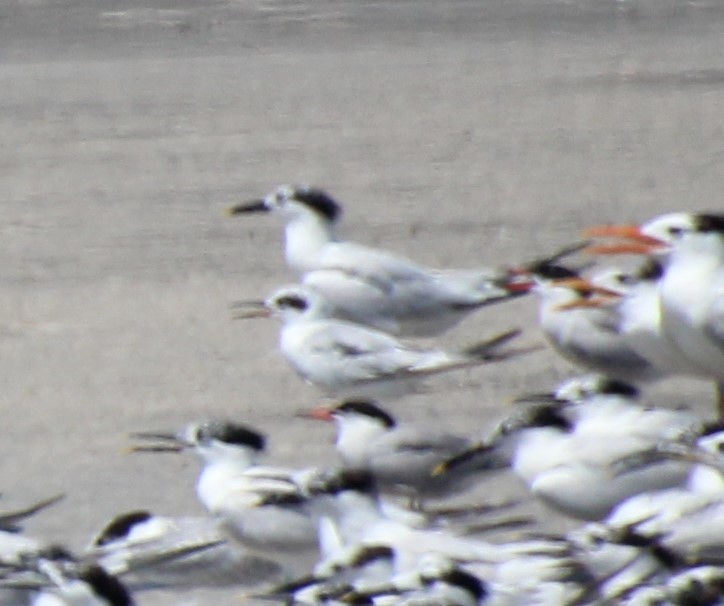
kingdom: Animalia
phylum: Chordata
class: Aves
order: Charadriiformes
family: Laridae
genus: Sterna
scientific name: Sterna forsteri
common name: Forster's tern
